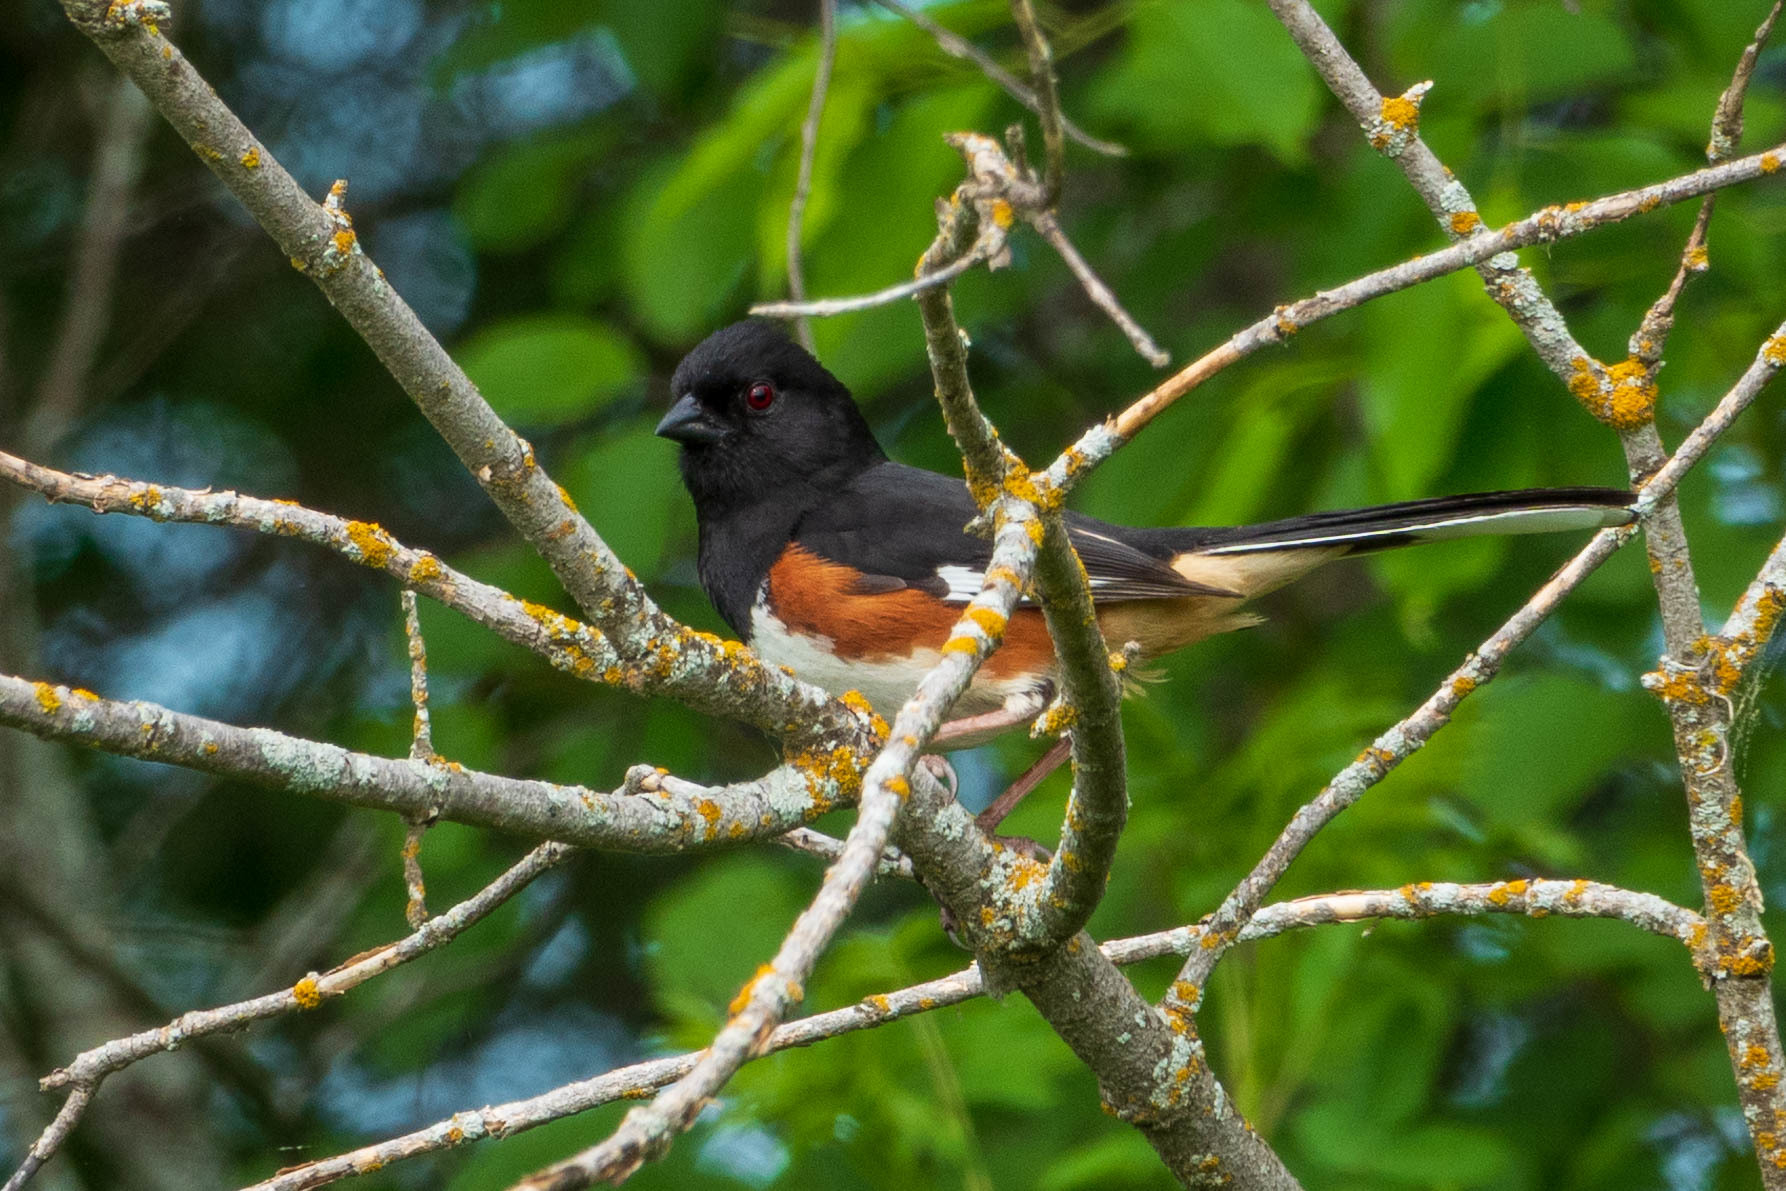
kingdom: Animalia
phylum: Chordata
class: Aves
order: Passeriformes
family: Passerellidae
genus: Pipilo
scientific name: Pipilo erythrophthalmus
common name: Eastern towhee
